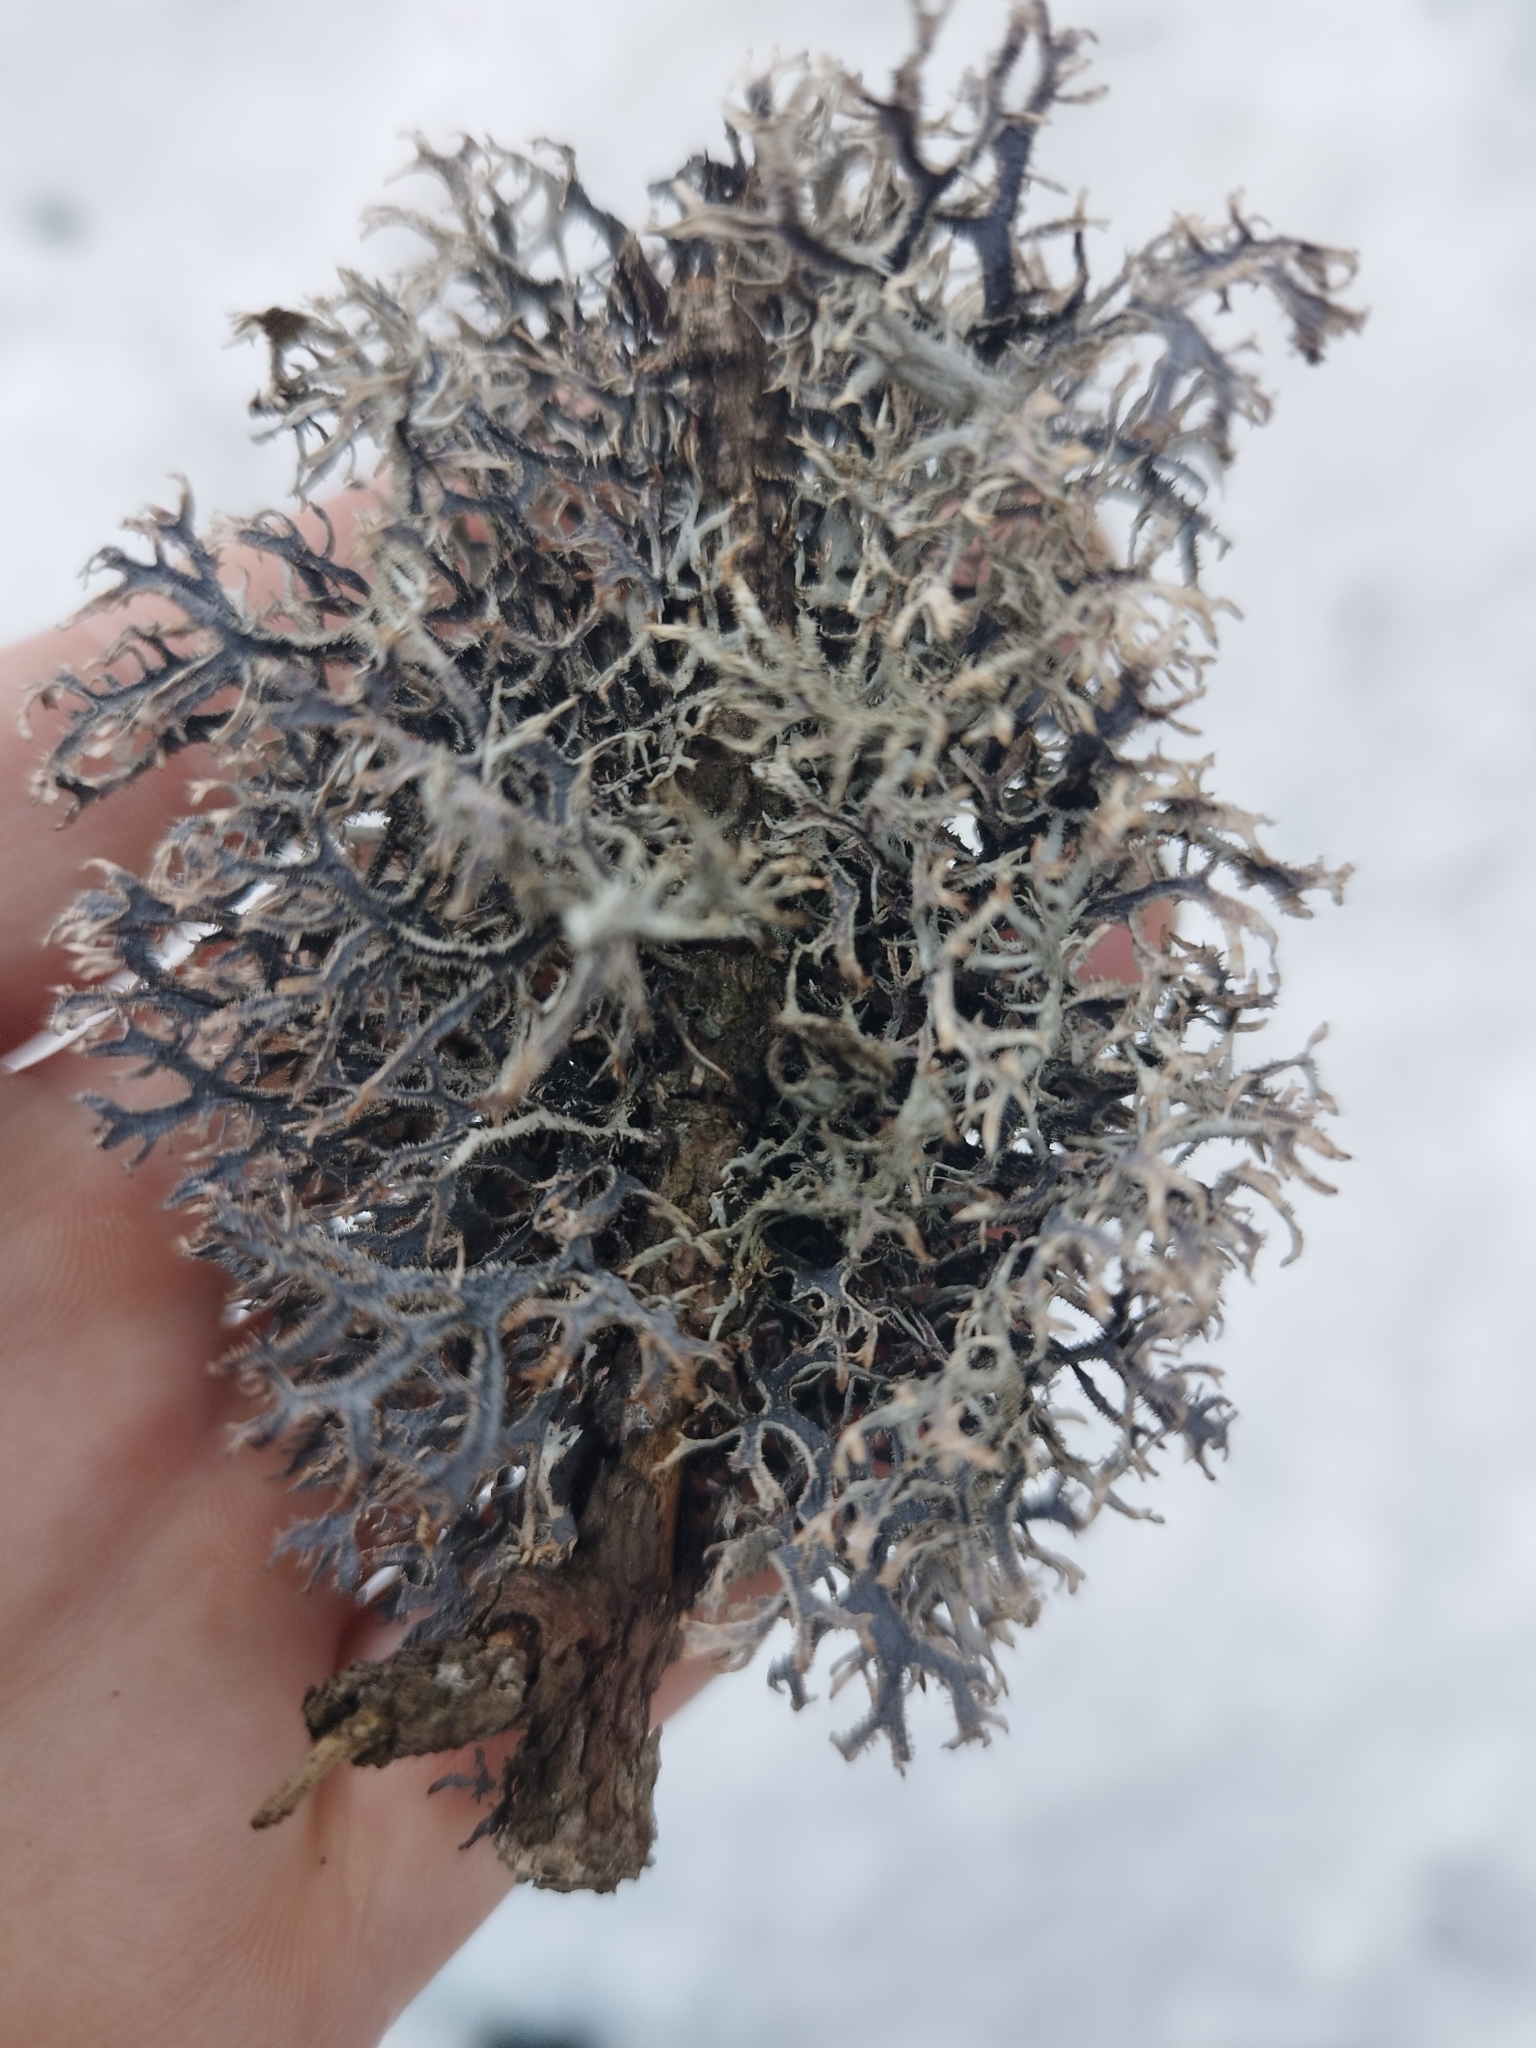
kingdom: Fungi
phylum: Ascomycota
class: Lecanoromycetes
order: Lecanorales
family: Parmeliaceae
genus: Pseudevernia
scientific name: Pseudevernia furfuracea
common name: Tree moss
